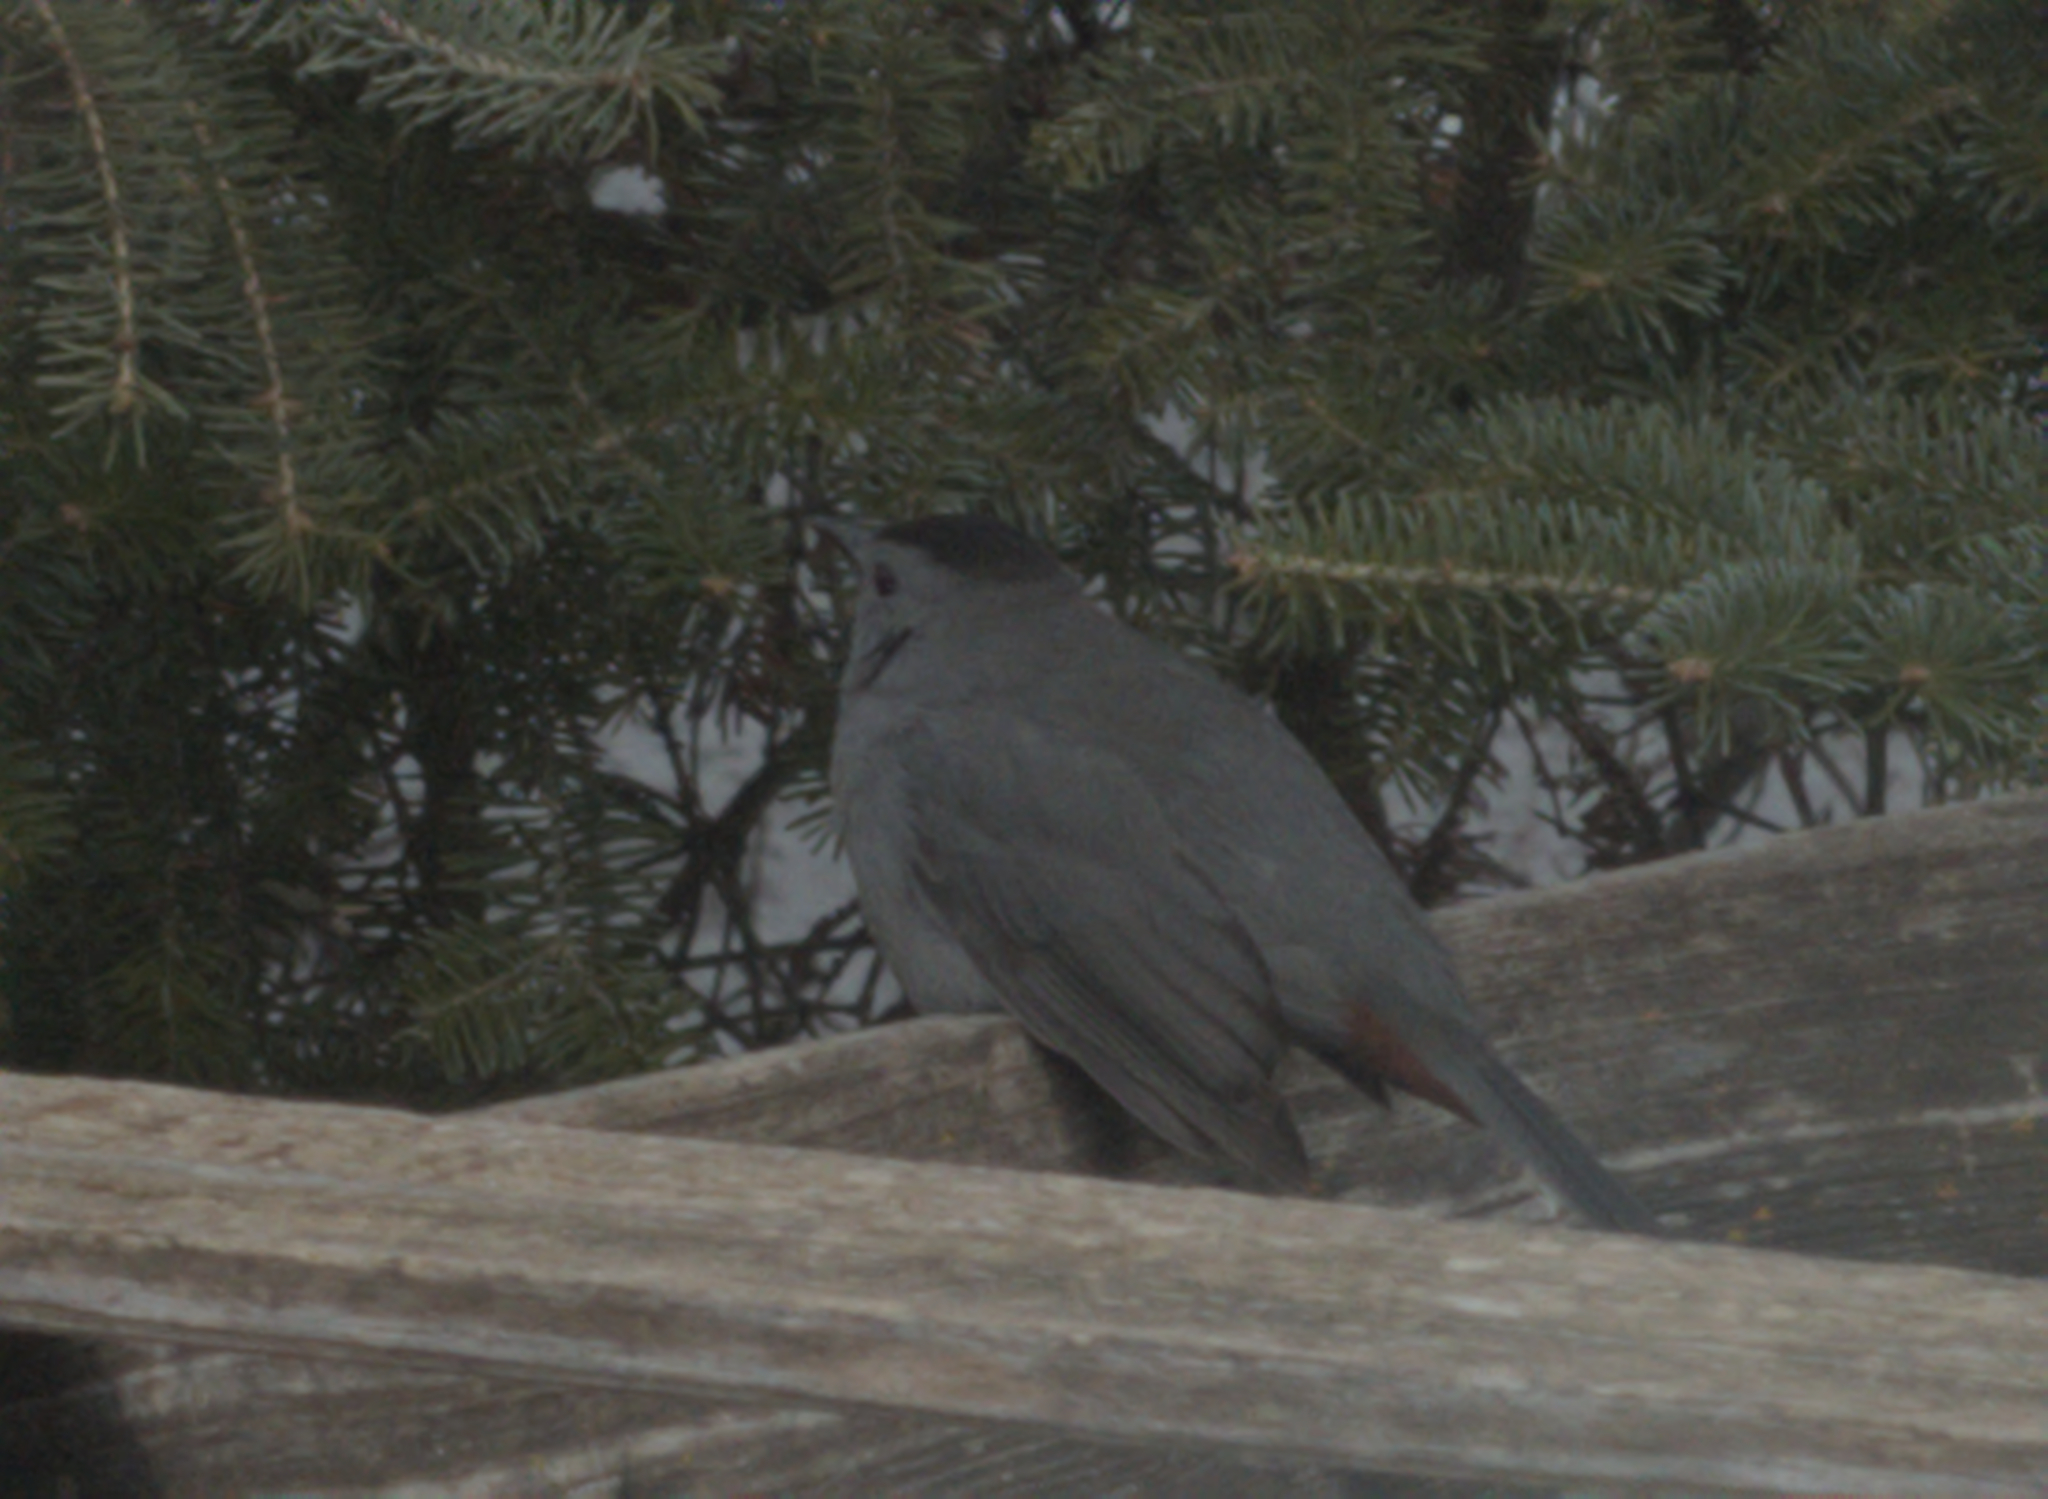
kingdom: Animalia
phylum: Chordata
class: Aves
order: Passeriformes
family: Mimidae
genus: Dumetella
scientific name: Dumetella carolinensis
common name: Gray catbird
